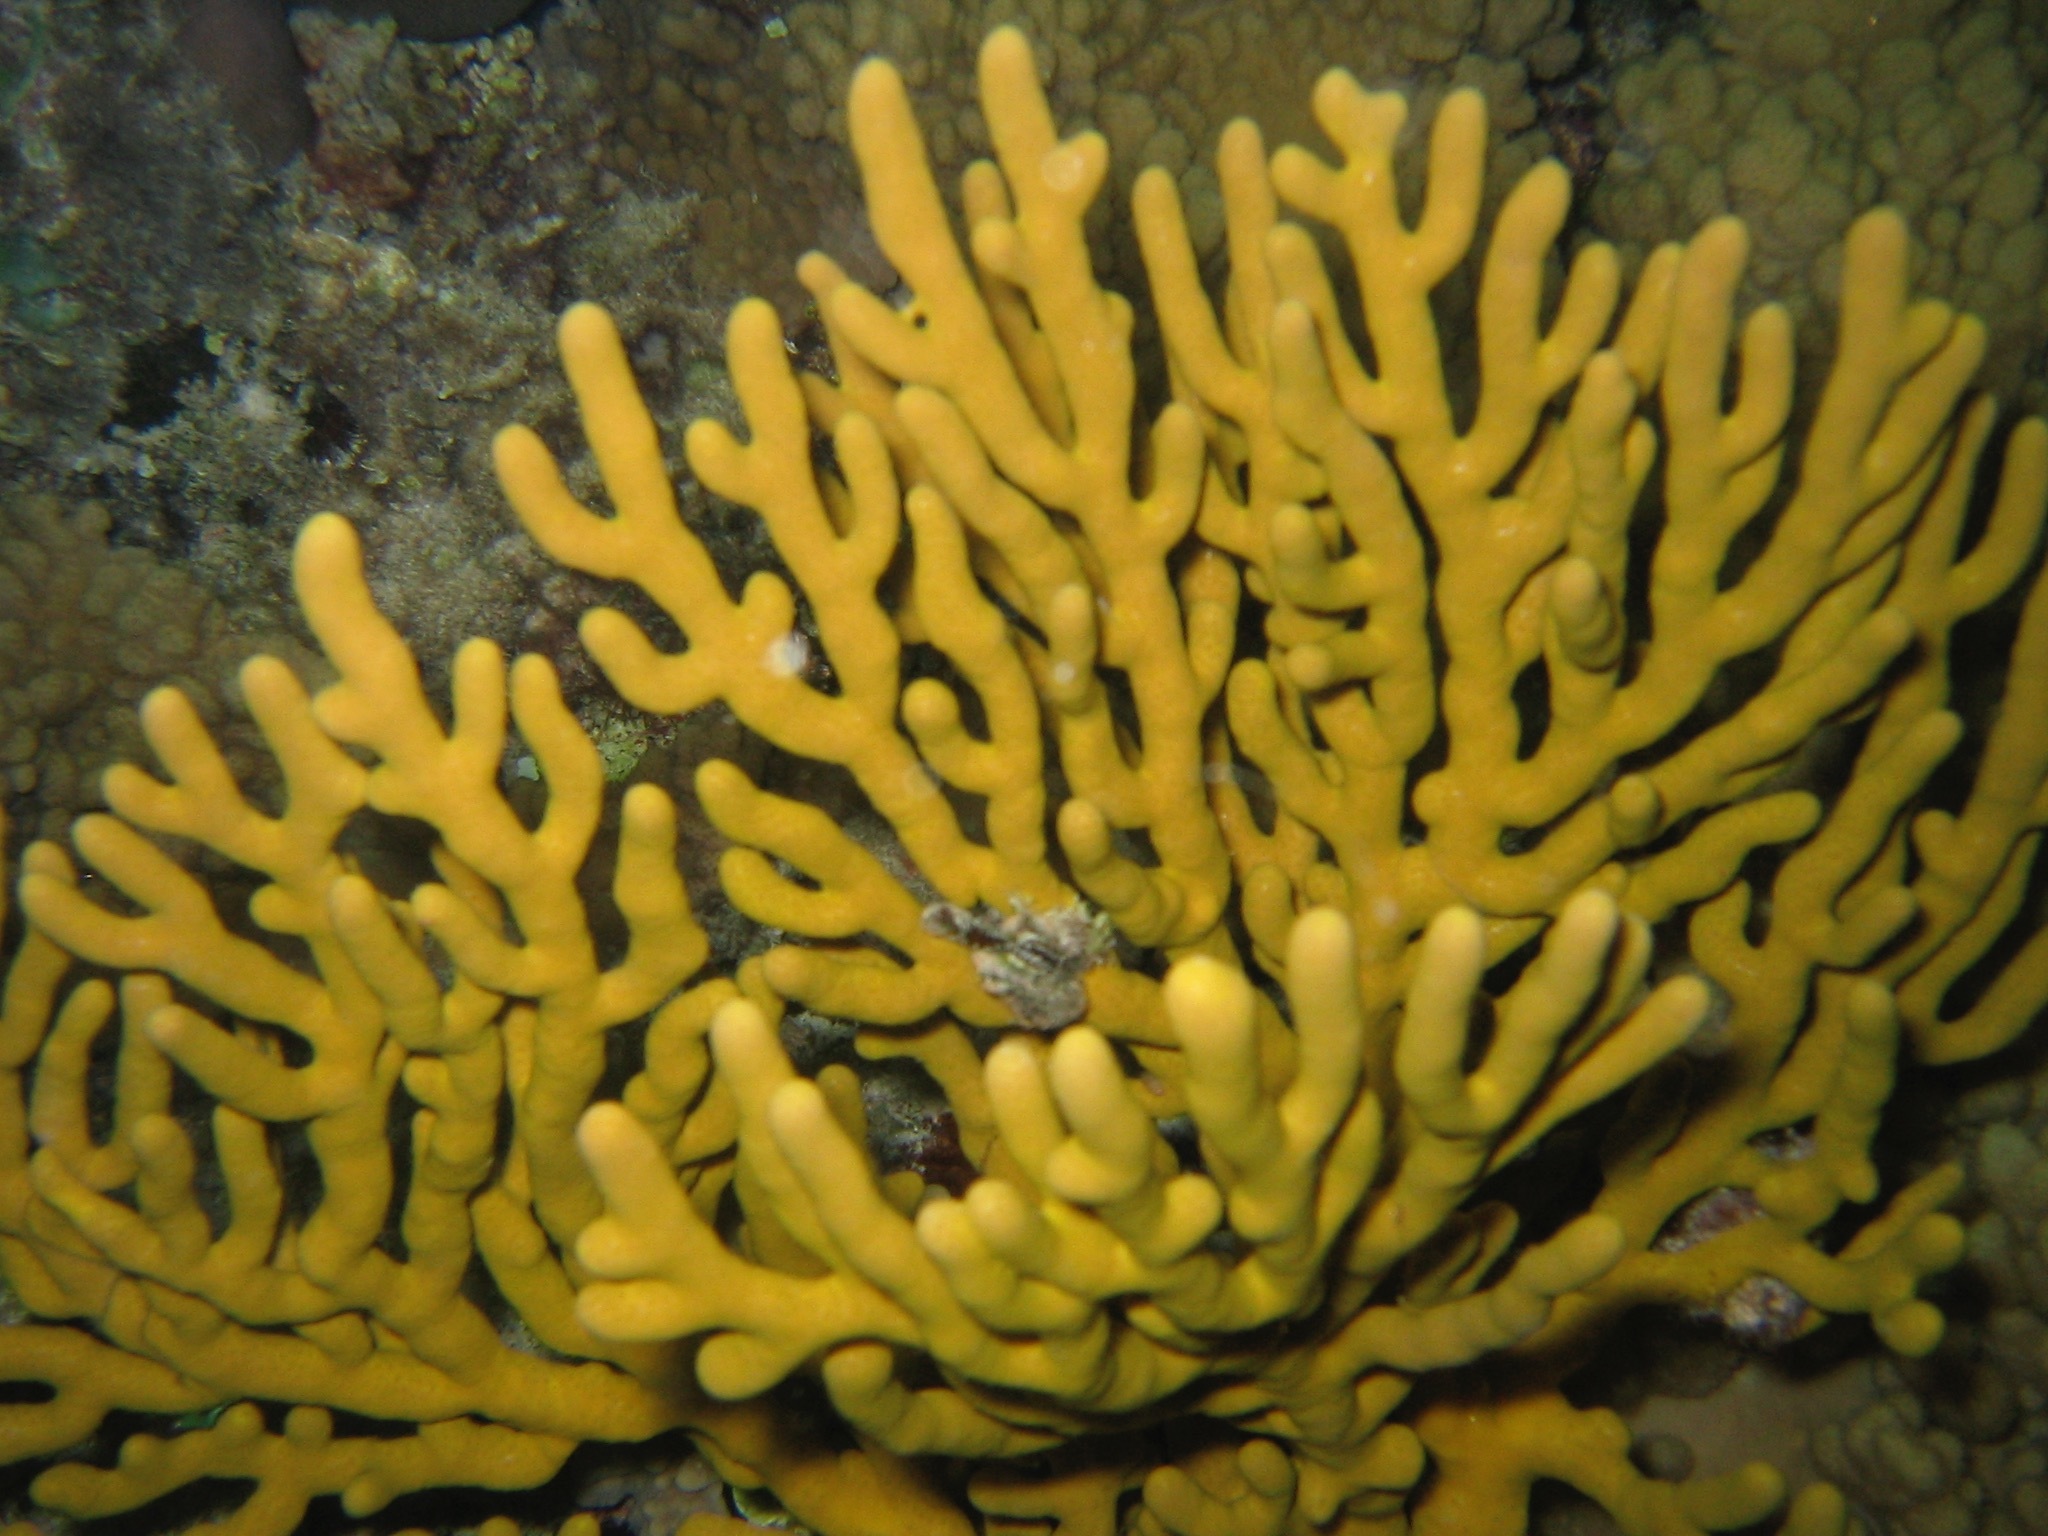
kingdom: Animalia
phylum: Cnidaria
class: Anthozoa
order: Malacalcyonacea
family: Isididae
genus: Isis
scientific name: Isis hippuris
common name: Golden sea fan
